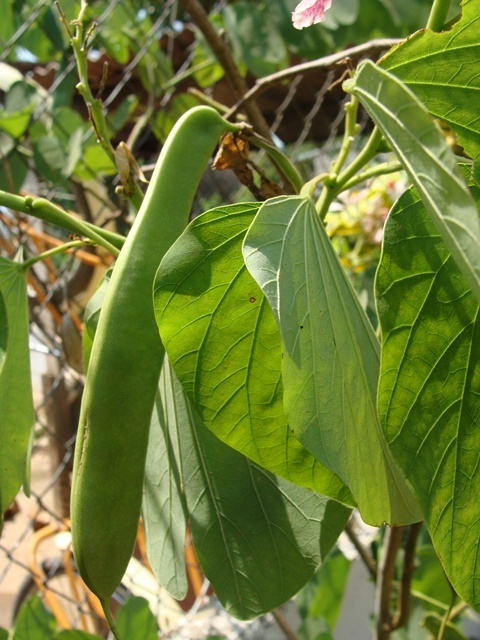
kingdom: Plantae
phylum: Tracheophyta
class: Magnoliopsida
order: Fabales
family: Fabaceae
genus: Bauhinia
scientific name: Bauhinia monandra
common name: Napoleon's plume
